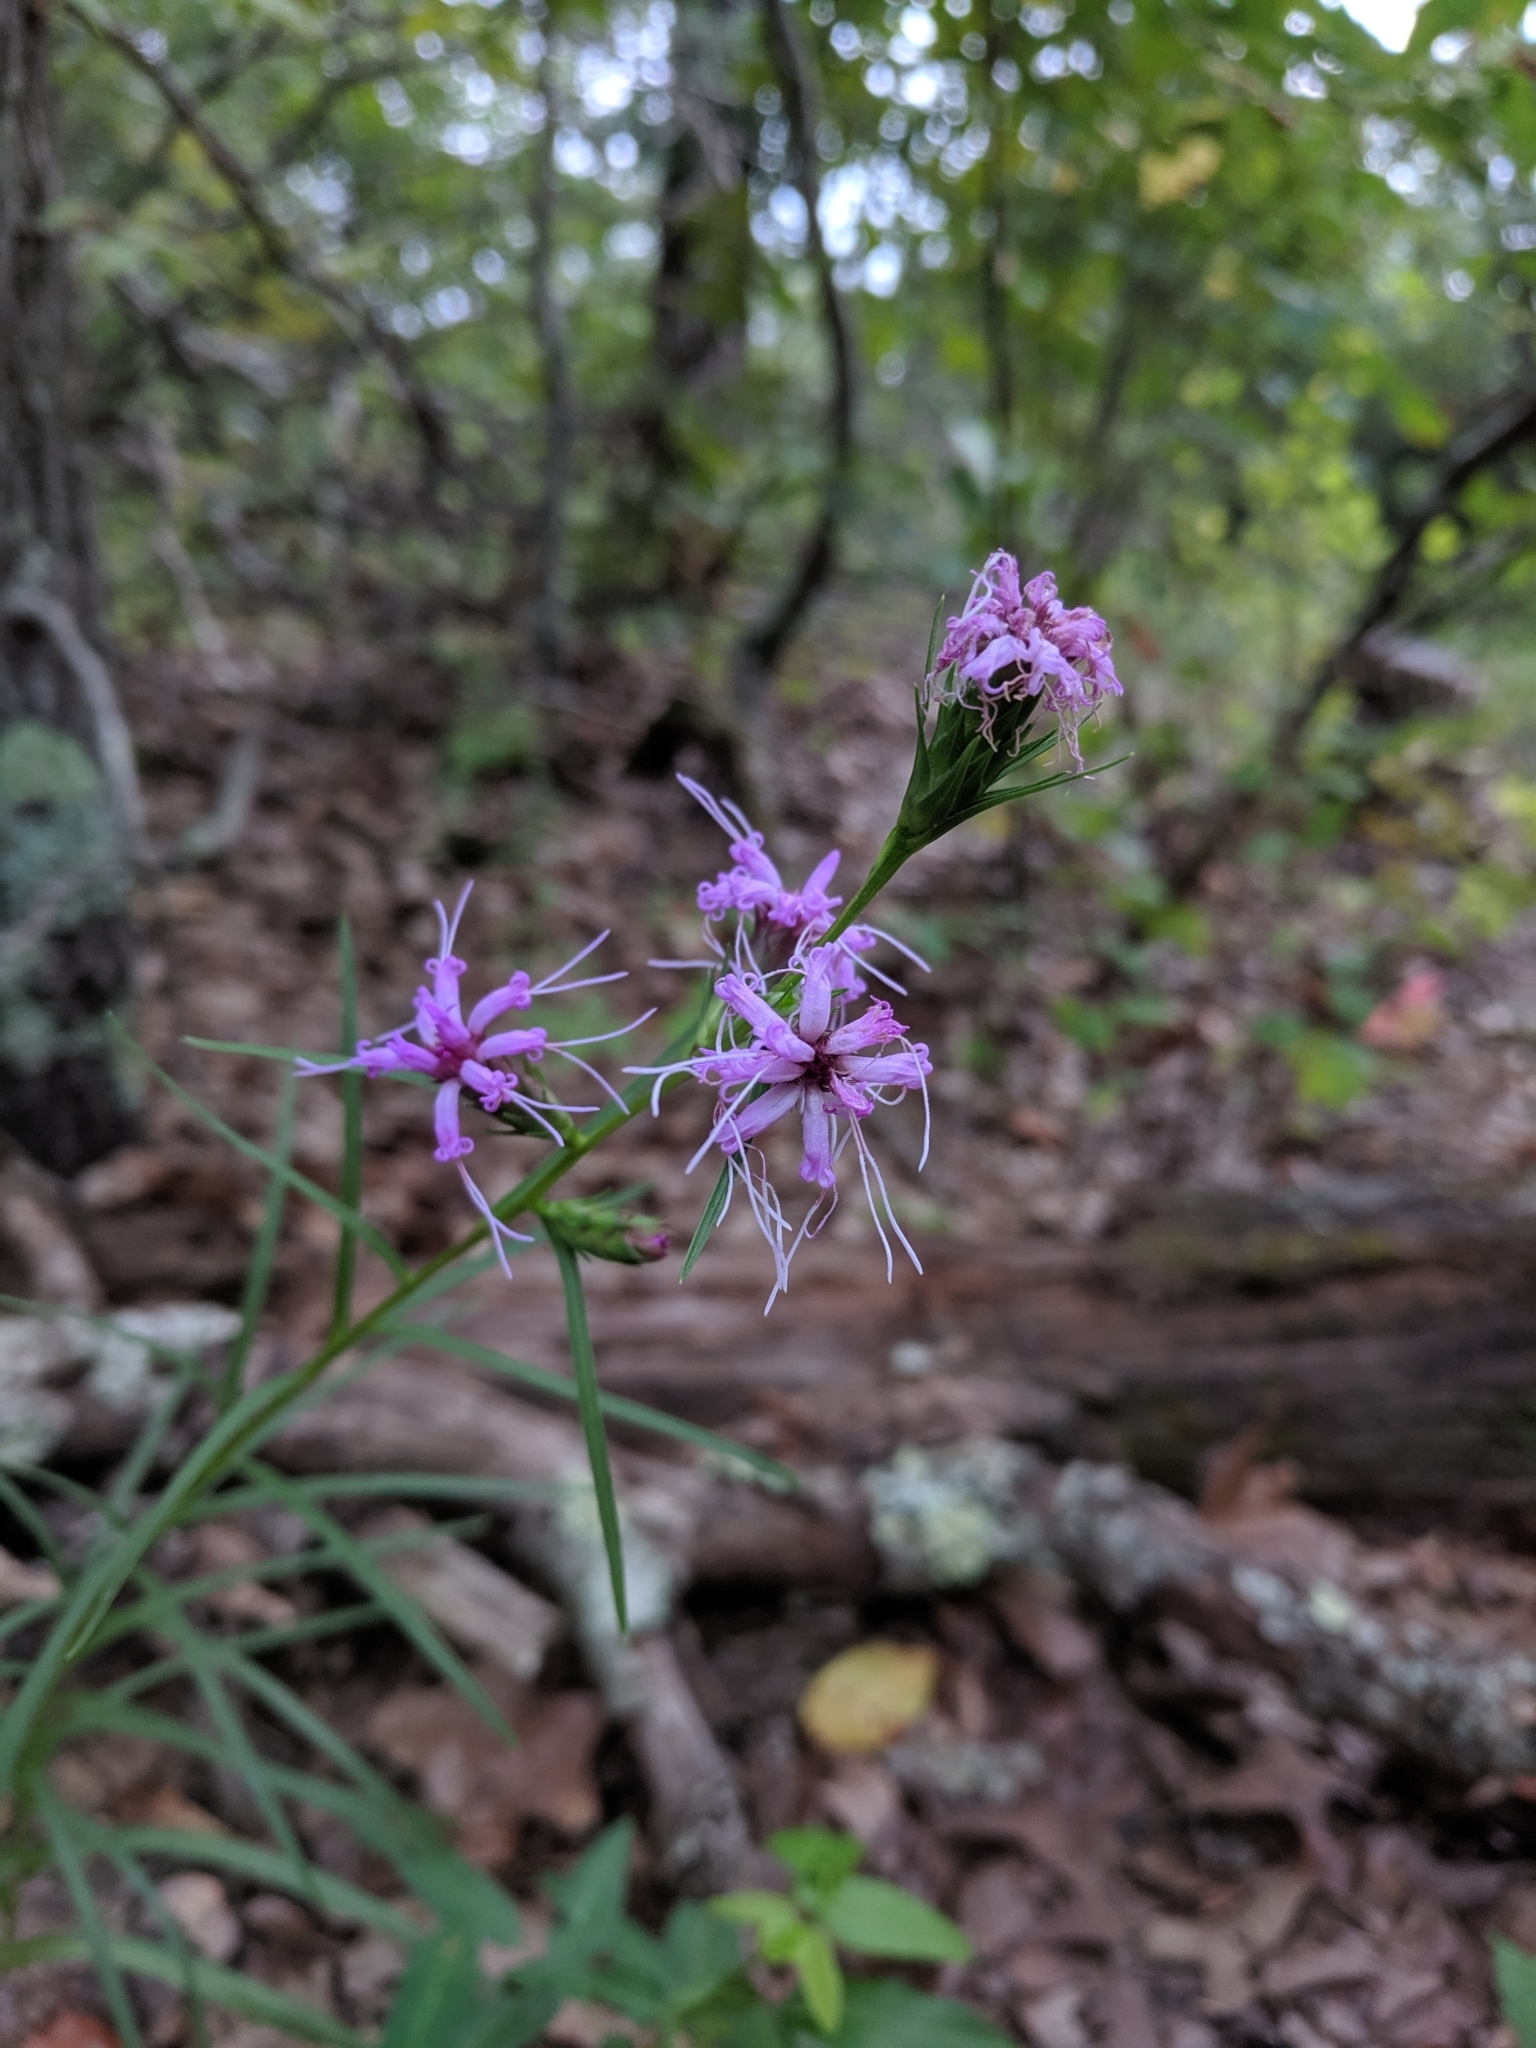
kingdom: Plantae
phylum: Tracheophyta
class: Magnoliopsida
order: Asterales
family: Asteraceae
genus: Liatris
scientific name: Liatris cylindracea
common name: Few-head blazingstar
